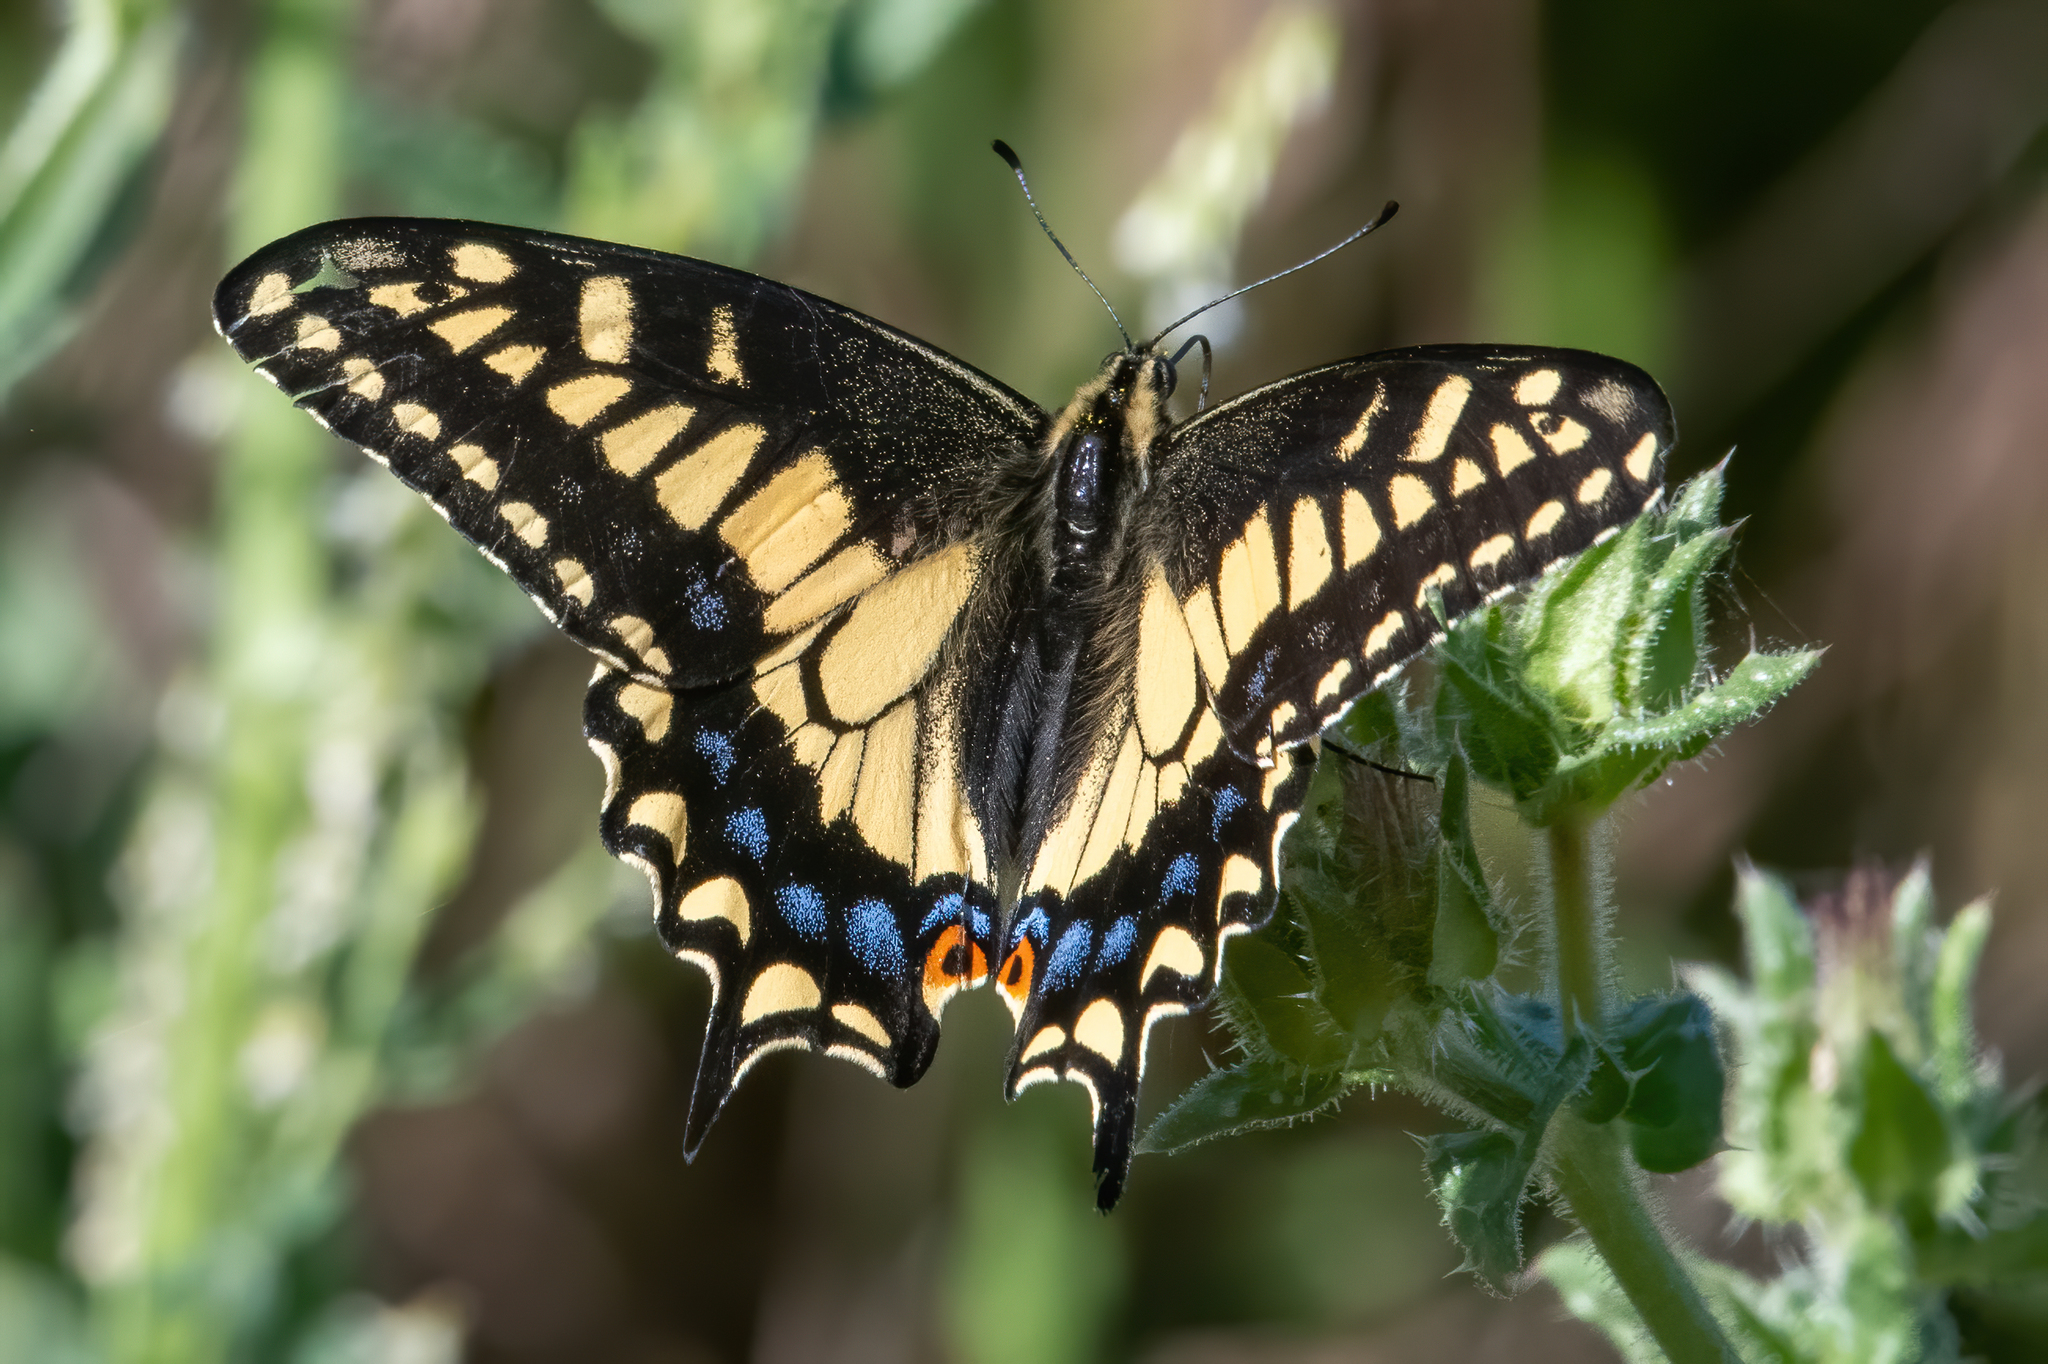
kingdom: Animalia
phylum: Arthropoda
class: Insecta
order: Lepidoptera
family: Papilionidae
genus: Papilio
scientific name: Papilio zelicaon
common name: Anise swallowtail
